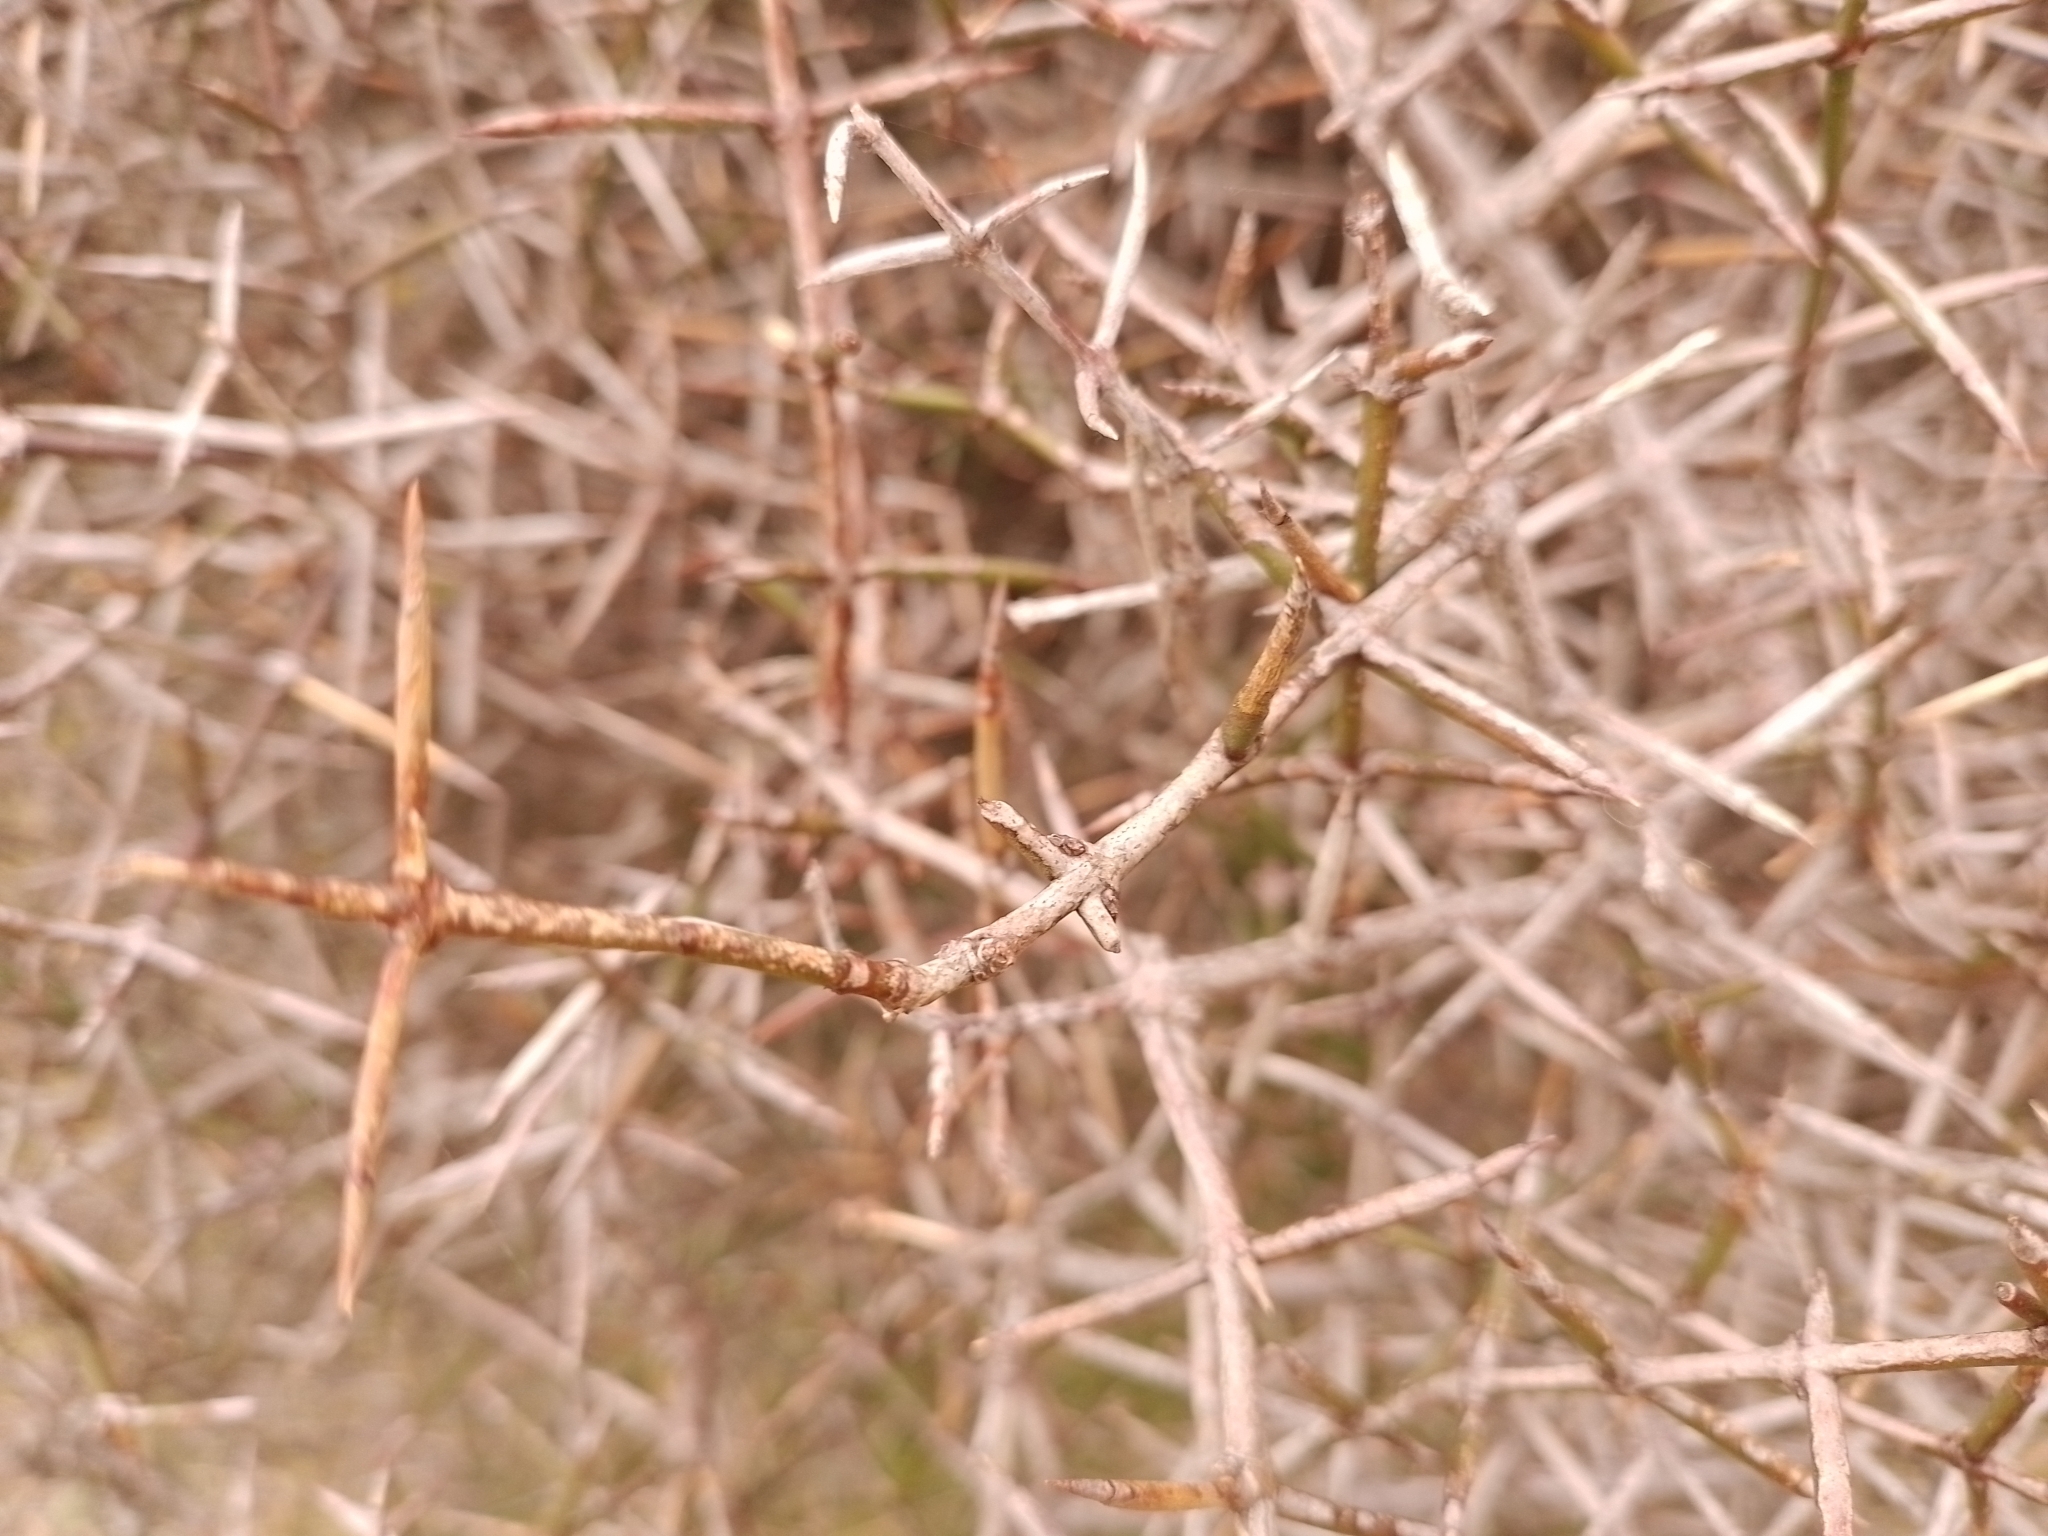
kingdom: Plantae
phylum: Tracheophyta
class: Magnoliopsida
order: Rosales
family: Rhamnaceae
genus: Discaria
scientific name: Discaria toumatou
